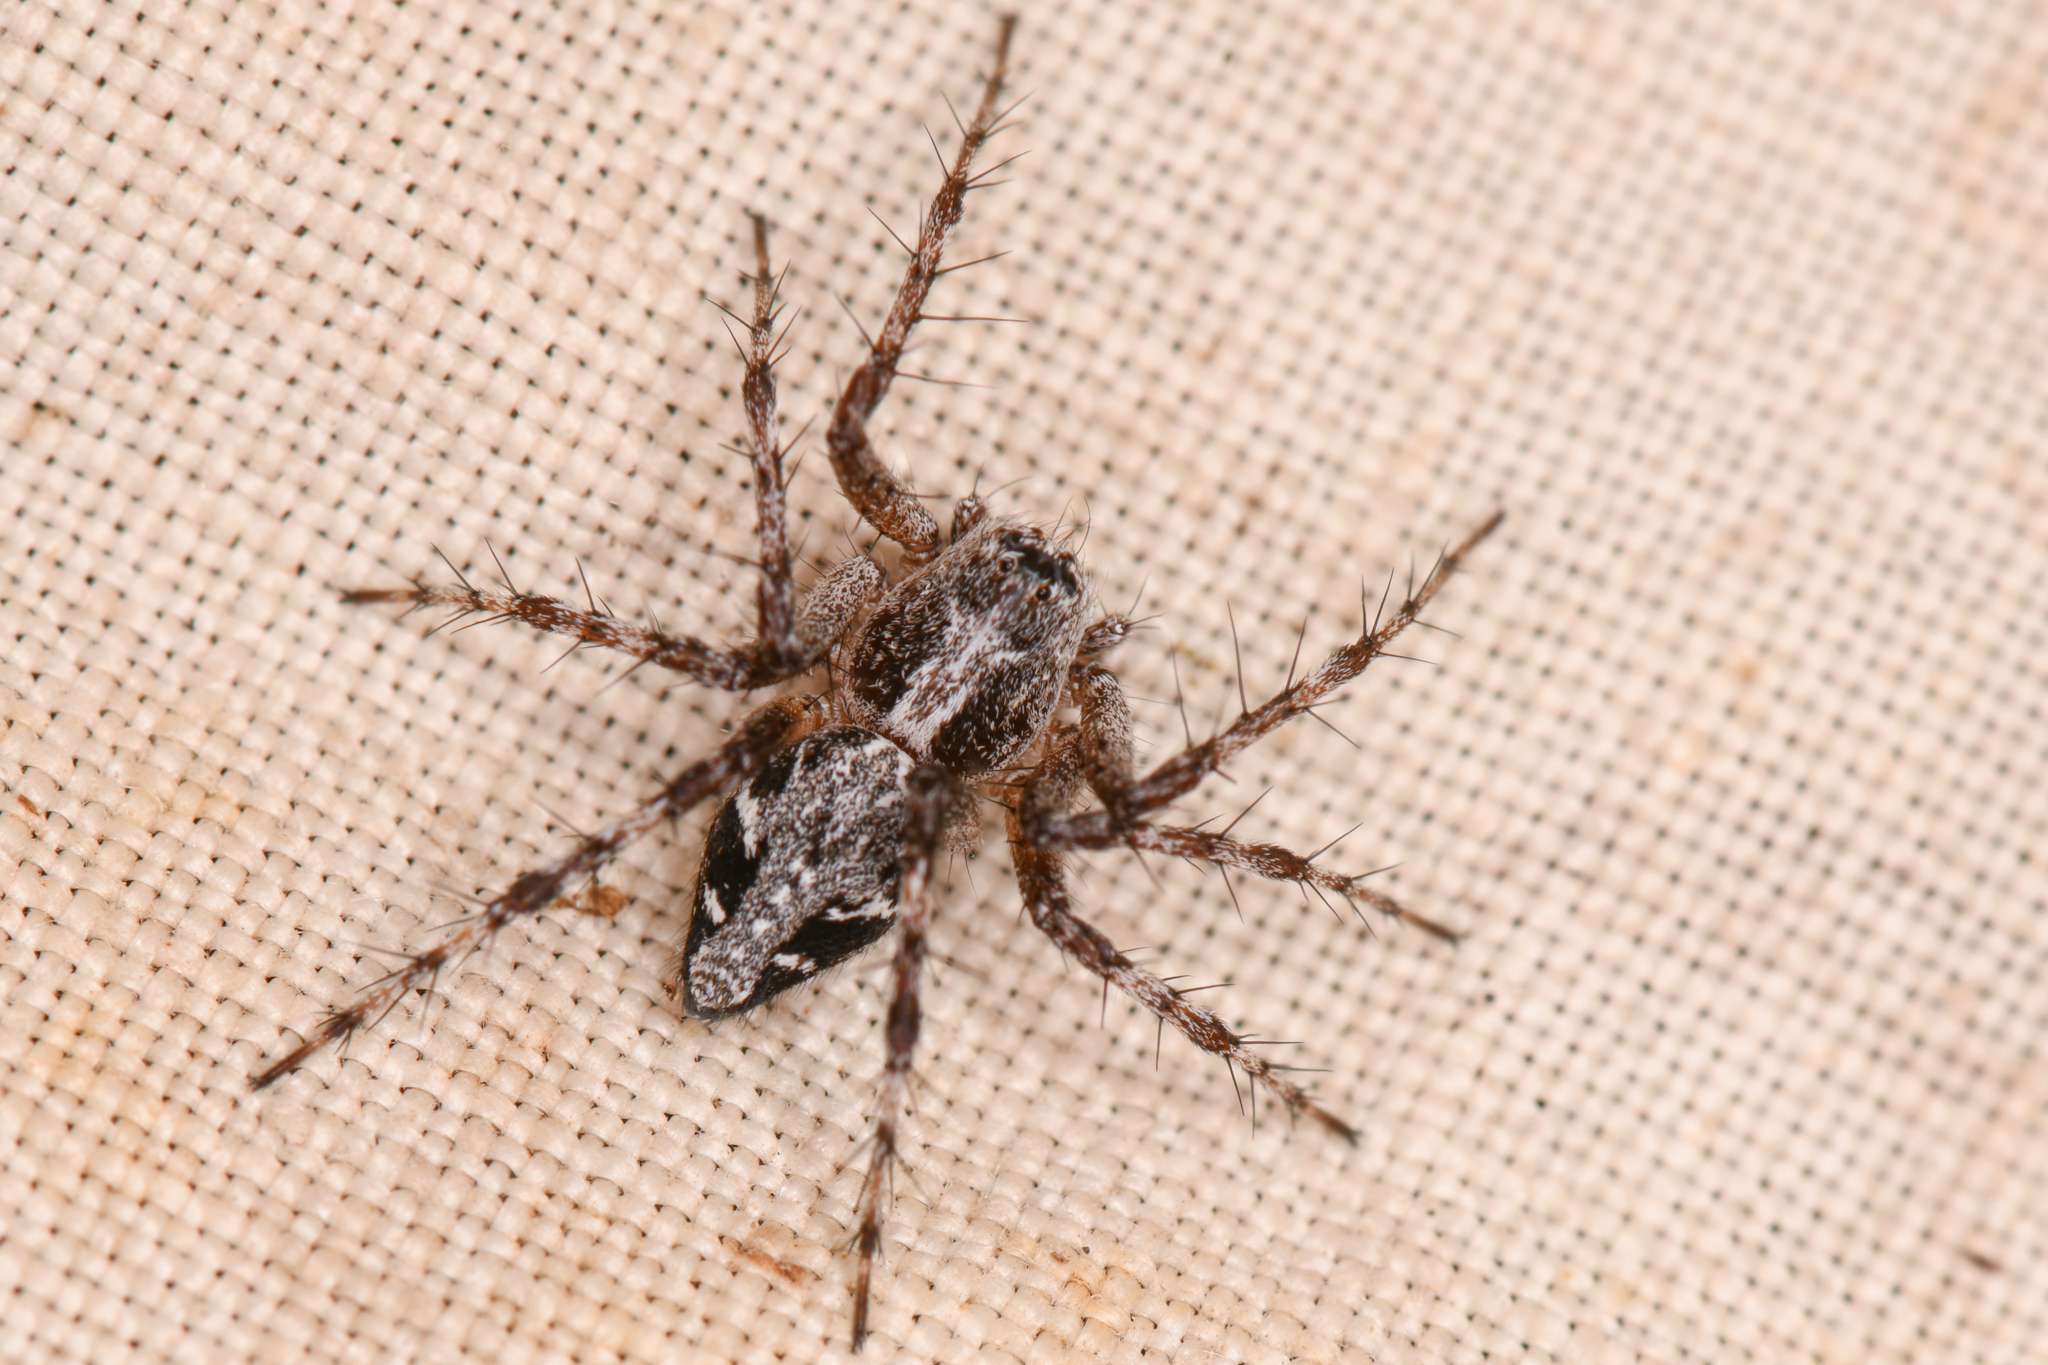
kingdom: Animalia
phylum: Arthropoda
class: Arachnida
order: Araneae
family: Oxyopidae
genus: Oxyopes
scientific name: Oxyopes scalaris
